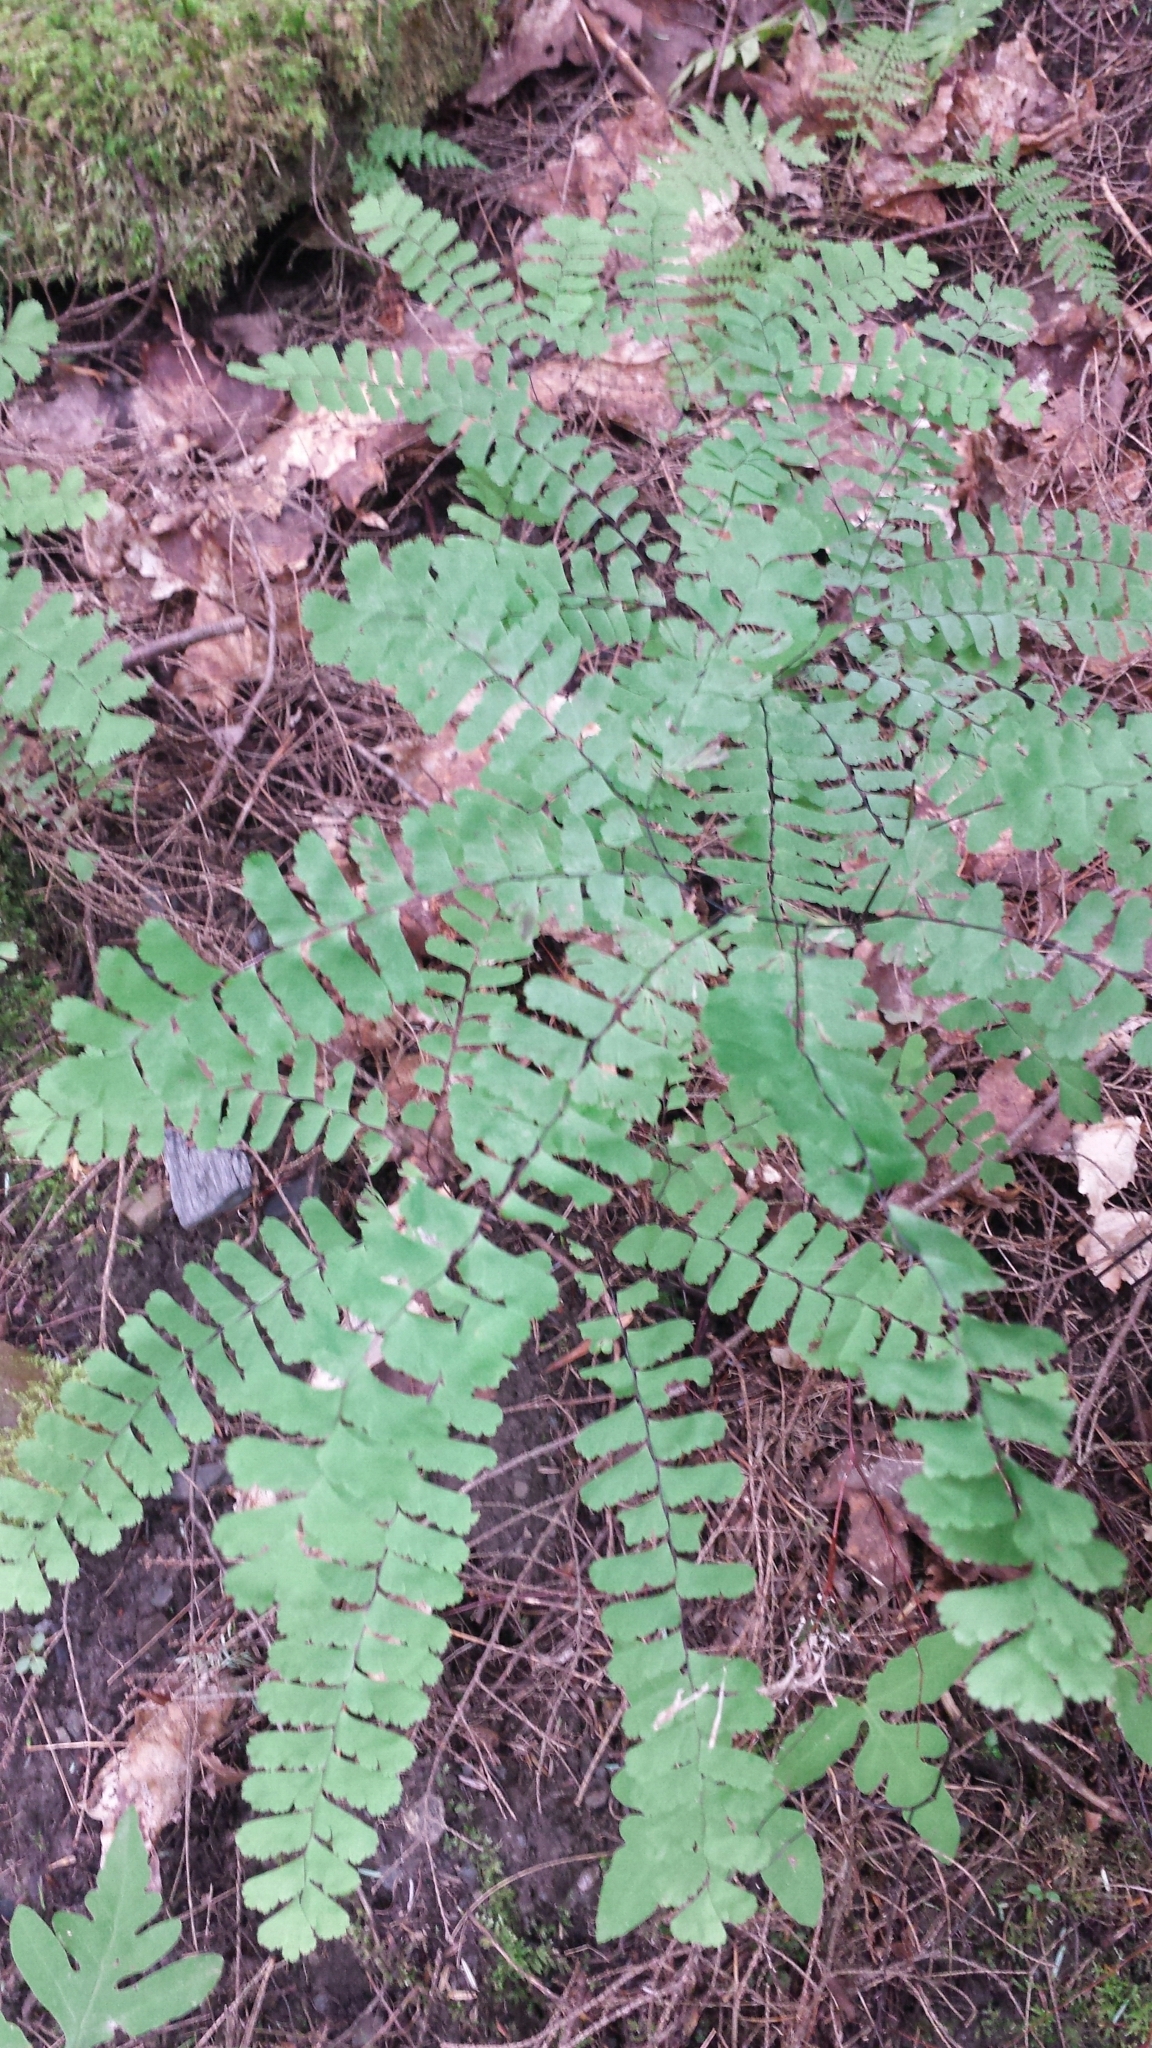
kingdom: Plantae
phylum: Tracheophyta
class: Polypodiopsida
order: Polypodiales
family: Pteridaceae
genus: Adiantum
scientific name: Adiantum pedatum
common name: Five-finger fern
